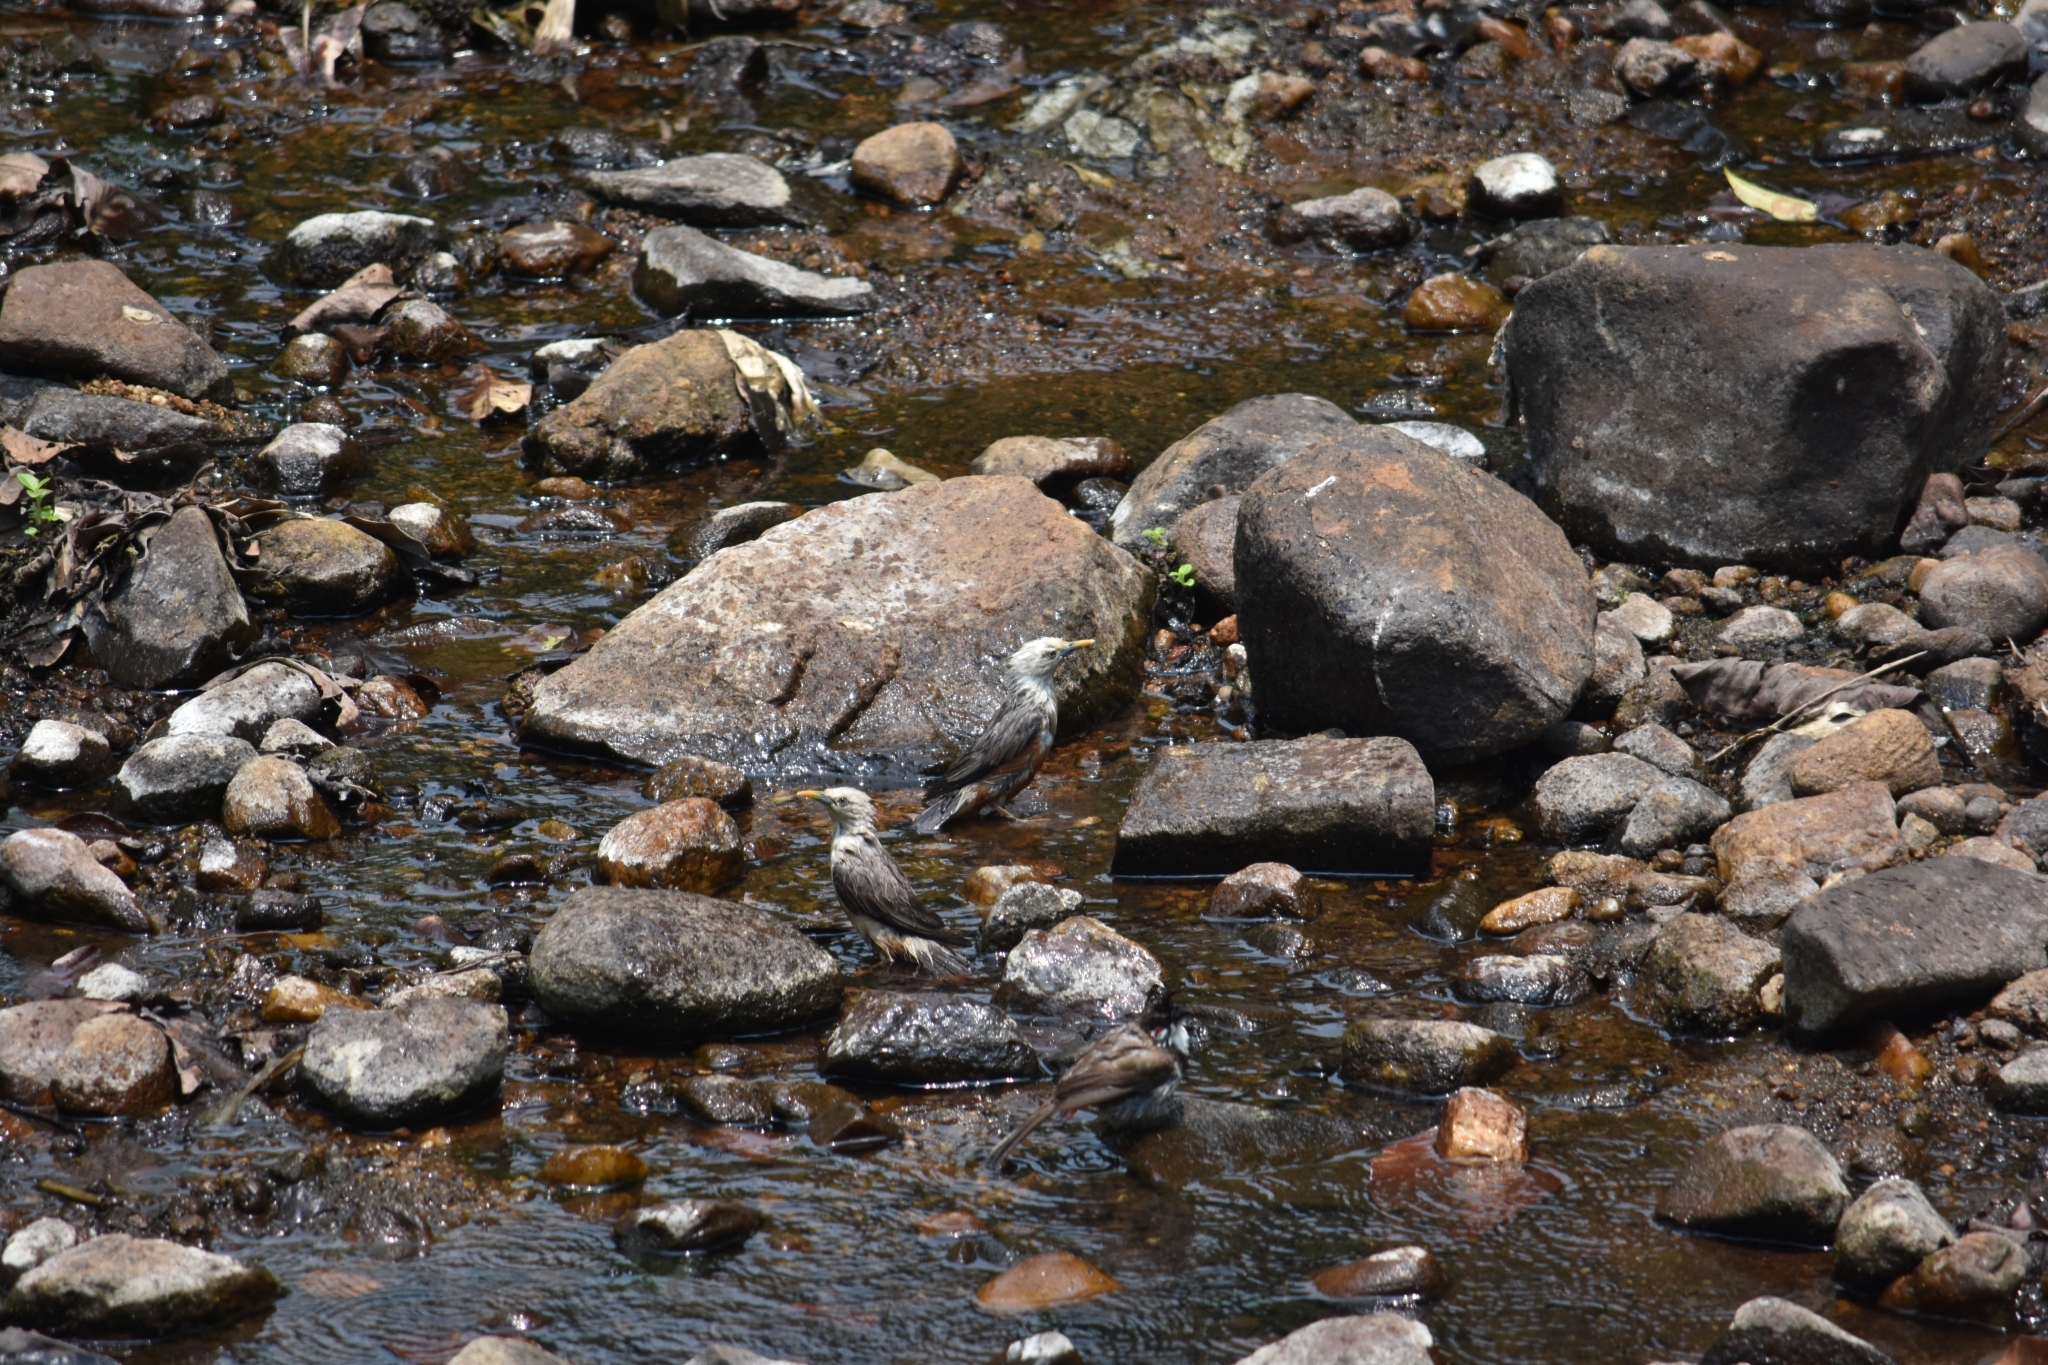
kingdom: Animalia
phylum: Chordata
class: Aves
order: Passeriformes
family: Sturnidae
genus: Sturnia
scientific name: Sturnia blythii
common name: Malabar starling
